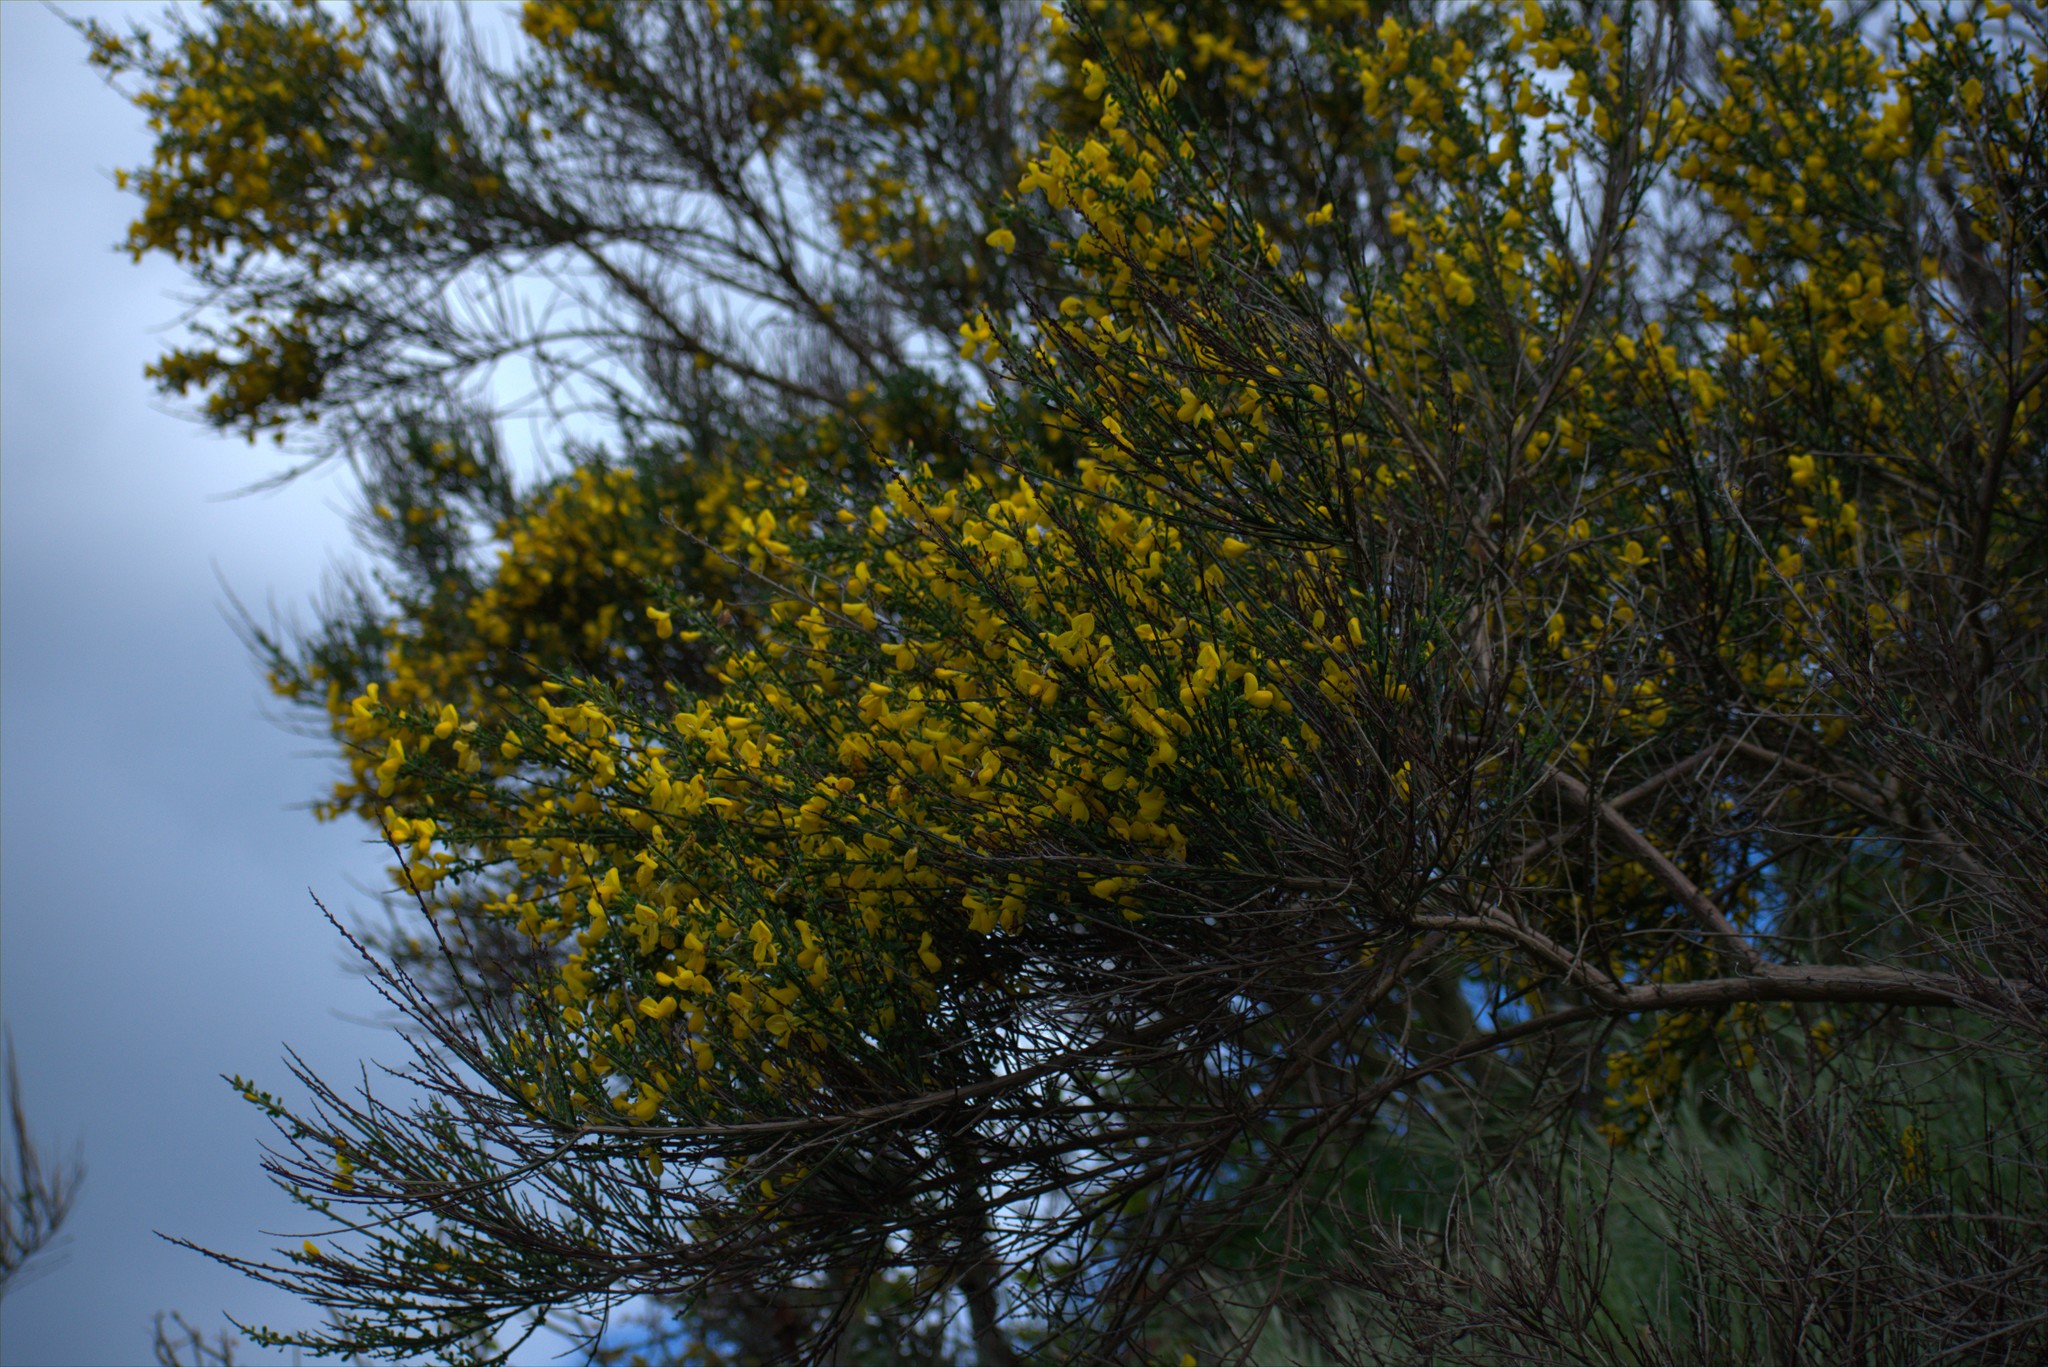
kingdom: Plantae
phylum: Tracheophyta
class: Magnoliopsida
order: Fabales
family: Fabaceae
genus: Cytisus
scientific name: Cytisus scoparius
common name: Scotch broom
